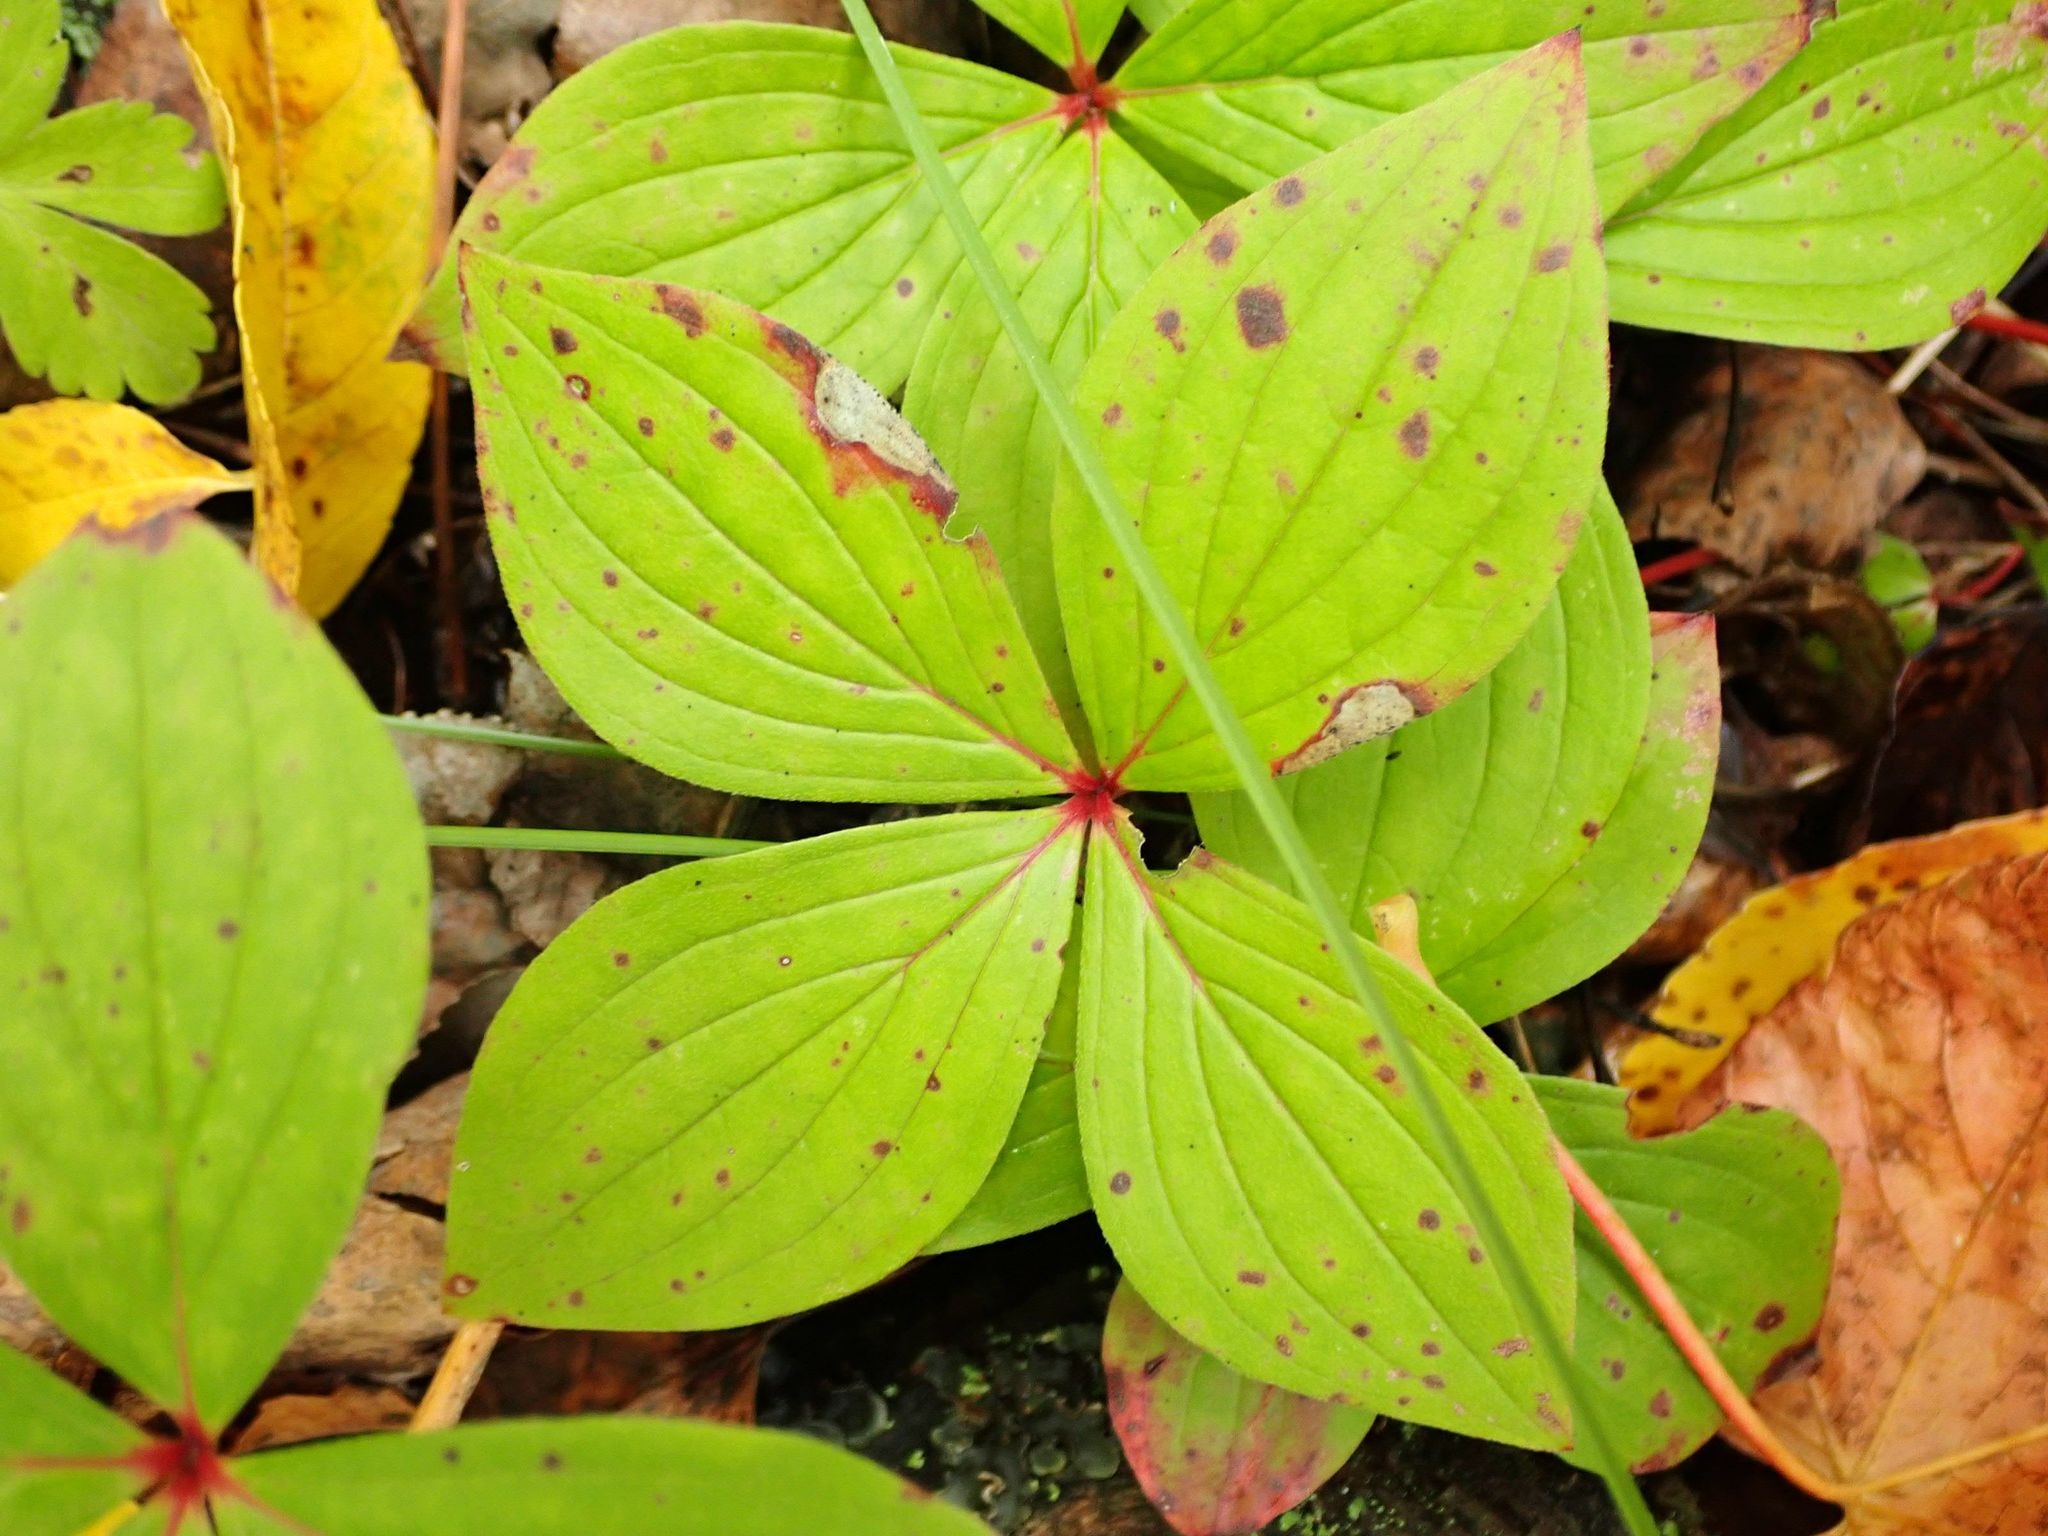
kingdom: Plantae
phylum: Tracheophyta
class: Magnoliopsida
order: Cornales
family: Cornaceae
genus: Cornus
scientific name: Cornus canadensis
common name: Creeping dogwood
